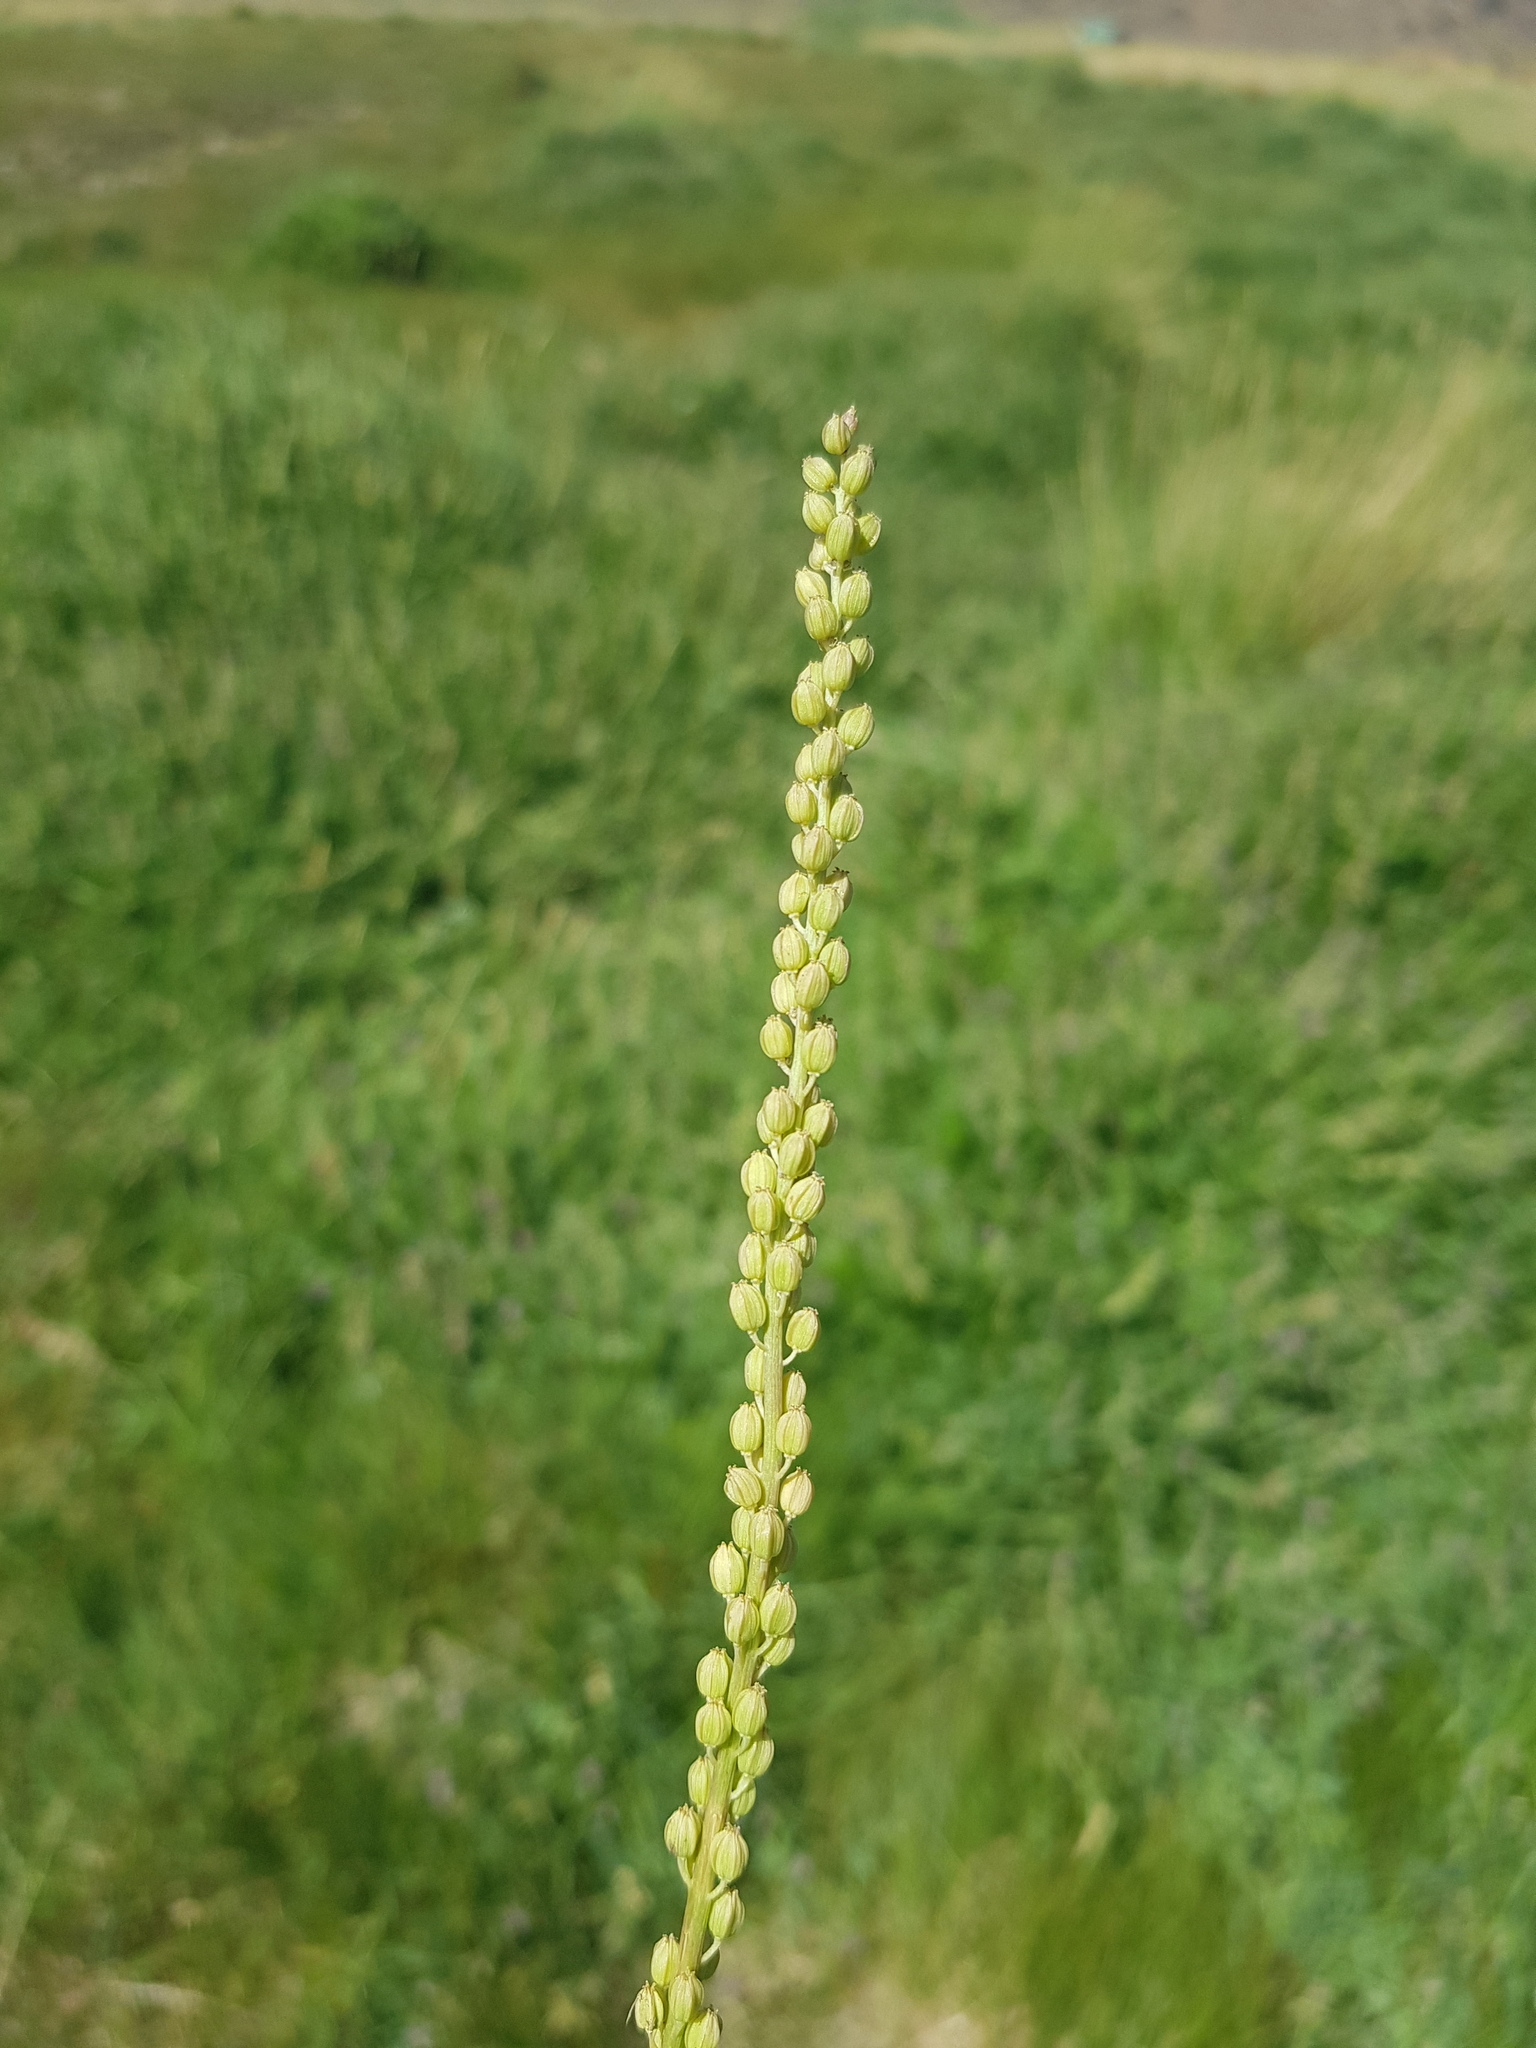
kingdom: Plantae
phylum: Tracheophyta
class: Liliopsida
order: Alismatales
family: Juncaginaceae
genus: Triglochin
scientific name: Triglochin maritima
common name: Sea arrowgrass
